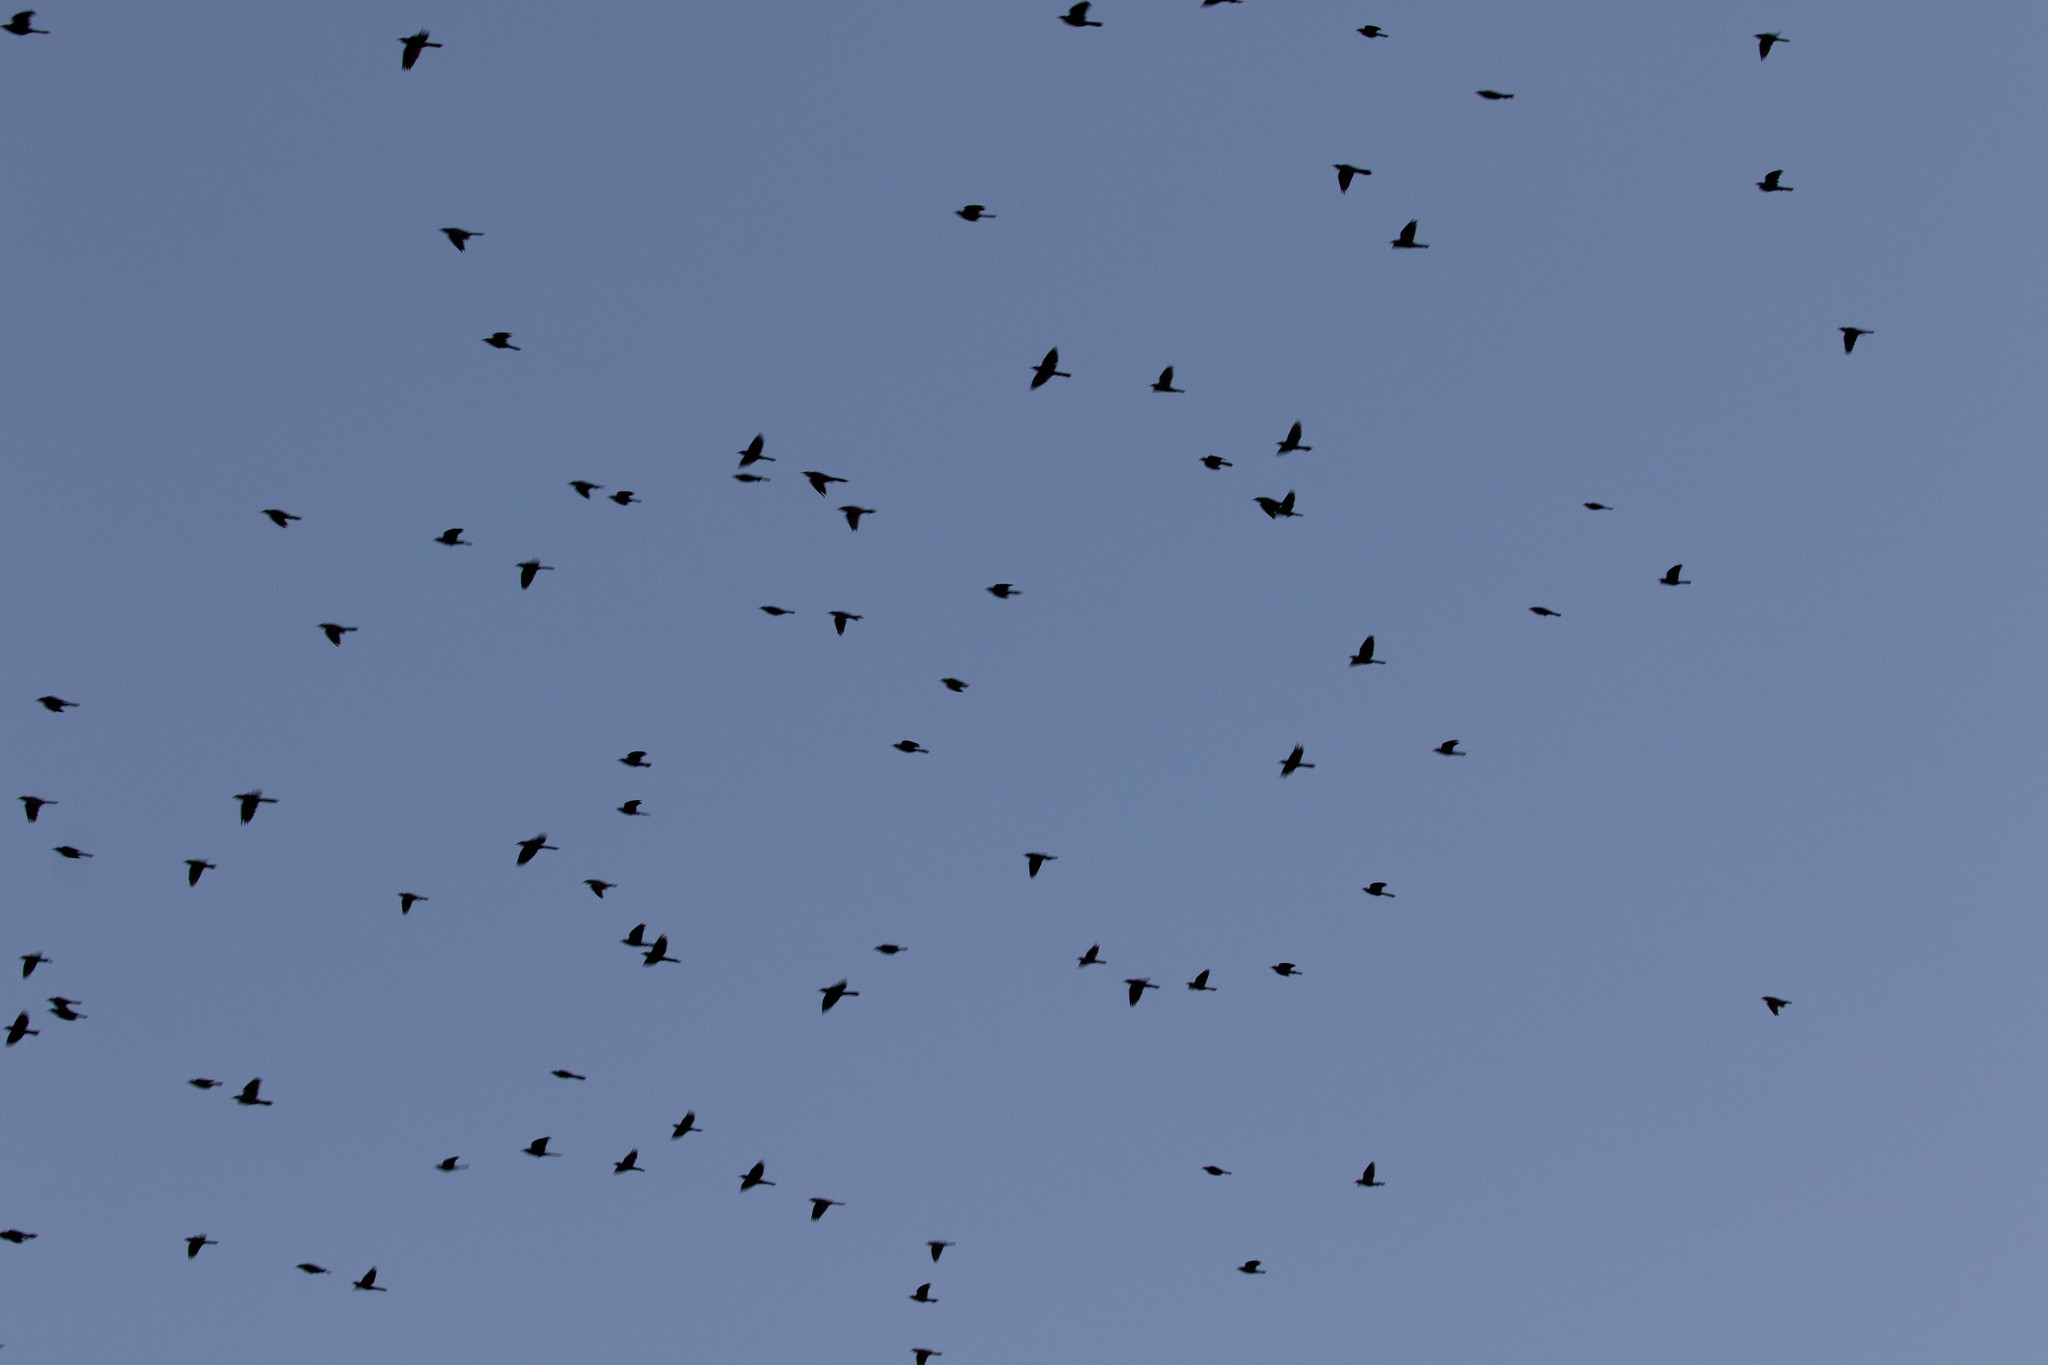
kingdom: Animalia
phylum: Chordata
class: Aves
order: Passeriformes
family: Icteridae
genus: Quiscalus
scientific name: Quiscalus quiscula
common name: Common grackle
